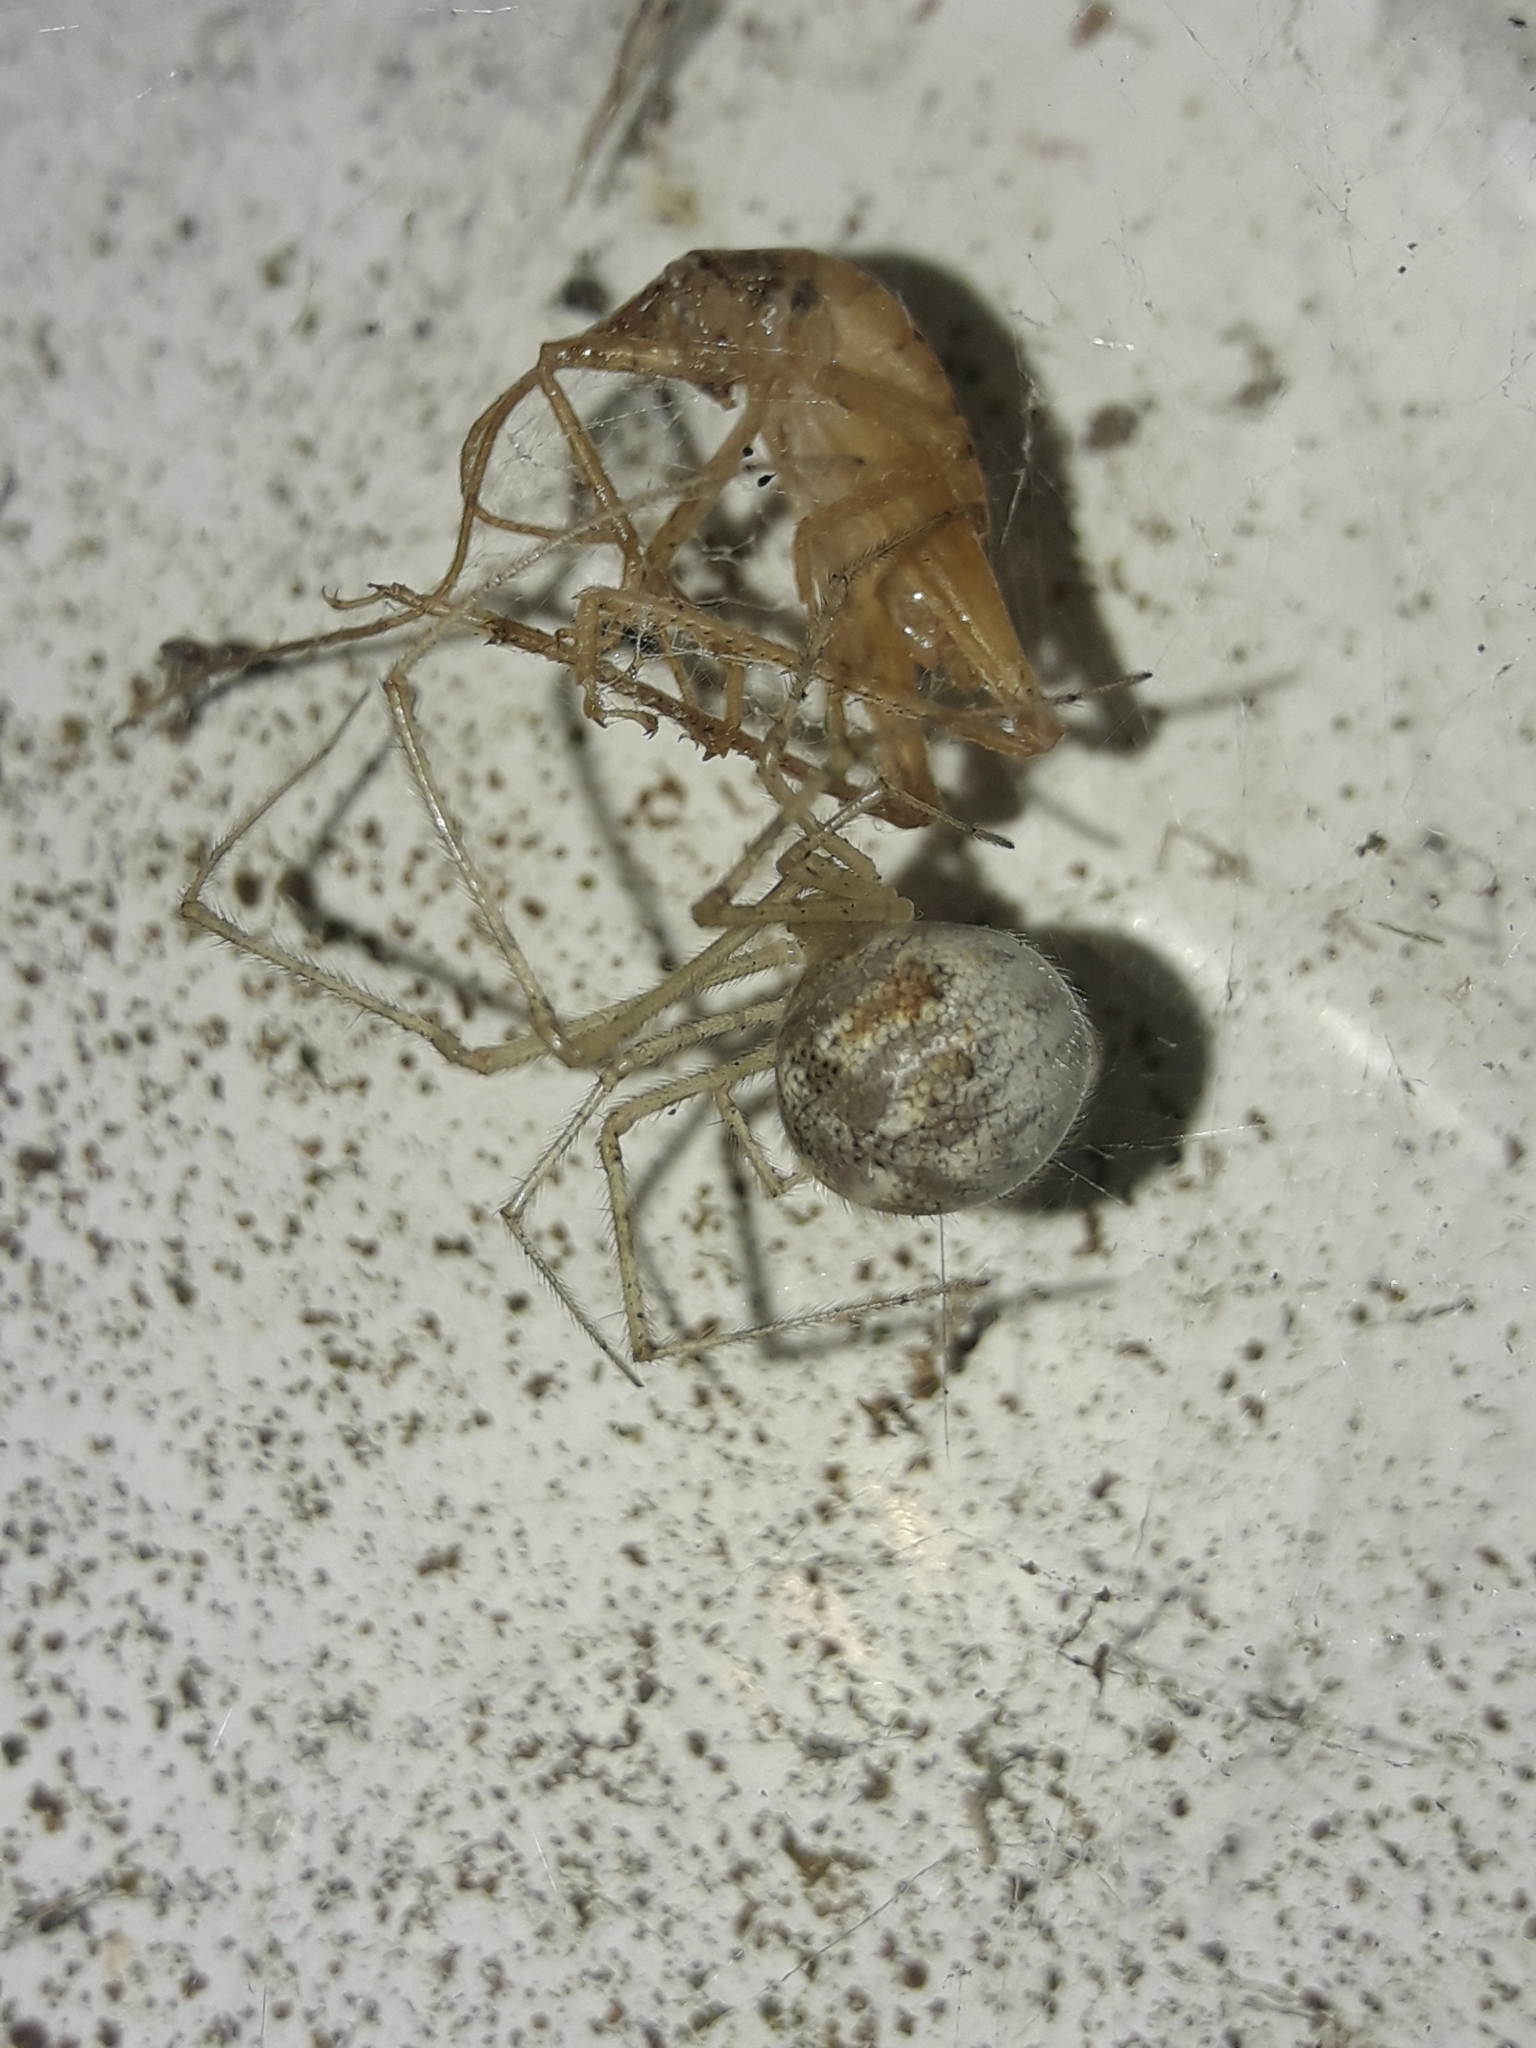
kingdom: Animalia
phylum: Arthropoda
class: Arachnida
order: Araneae
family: Theridiidae
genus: Cryptachaea
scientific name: Cryptachaea gigantipes
